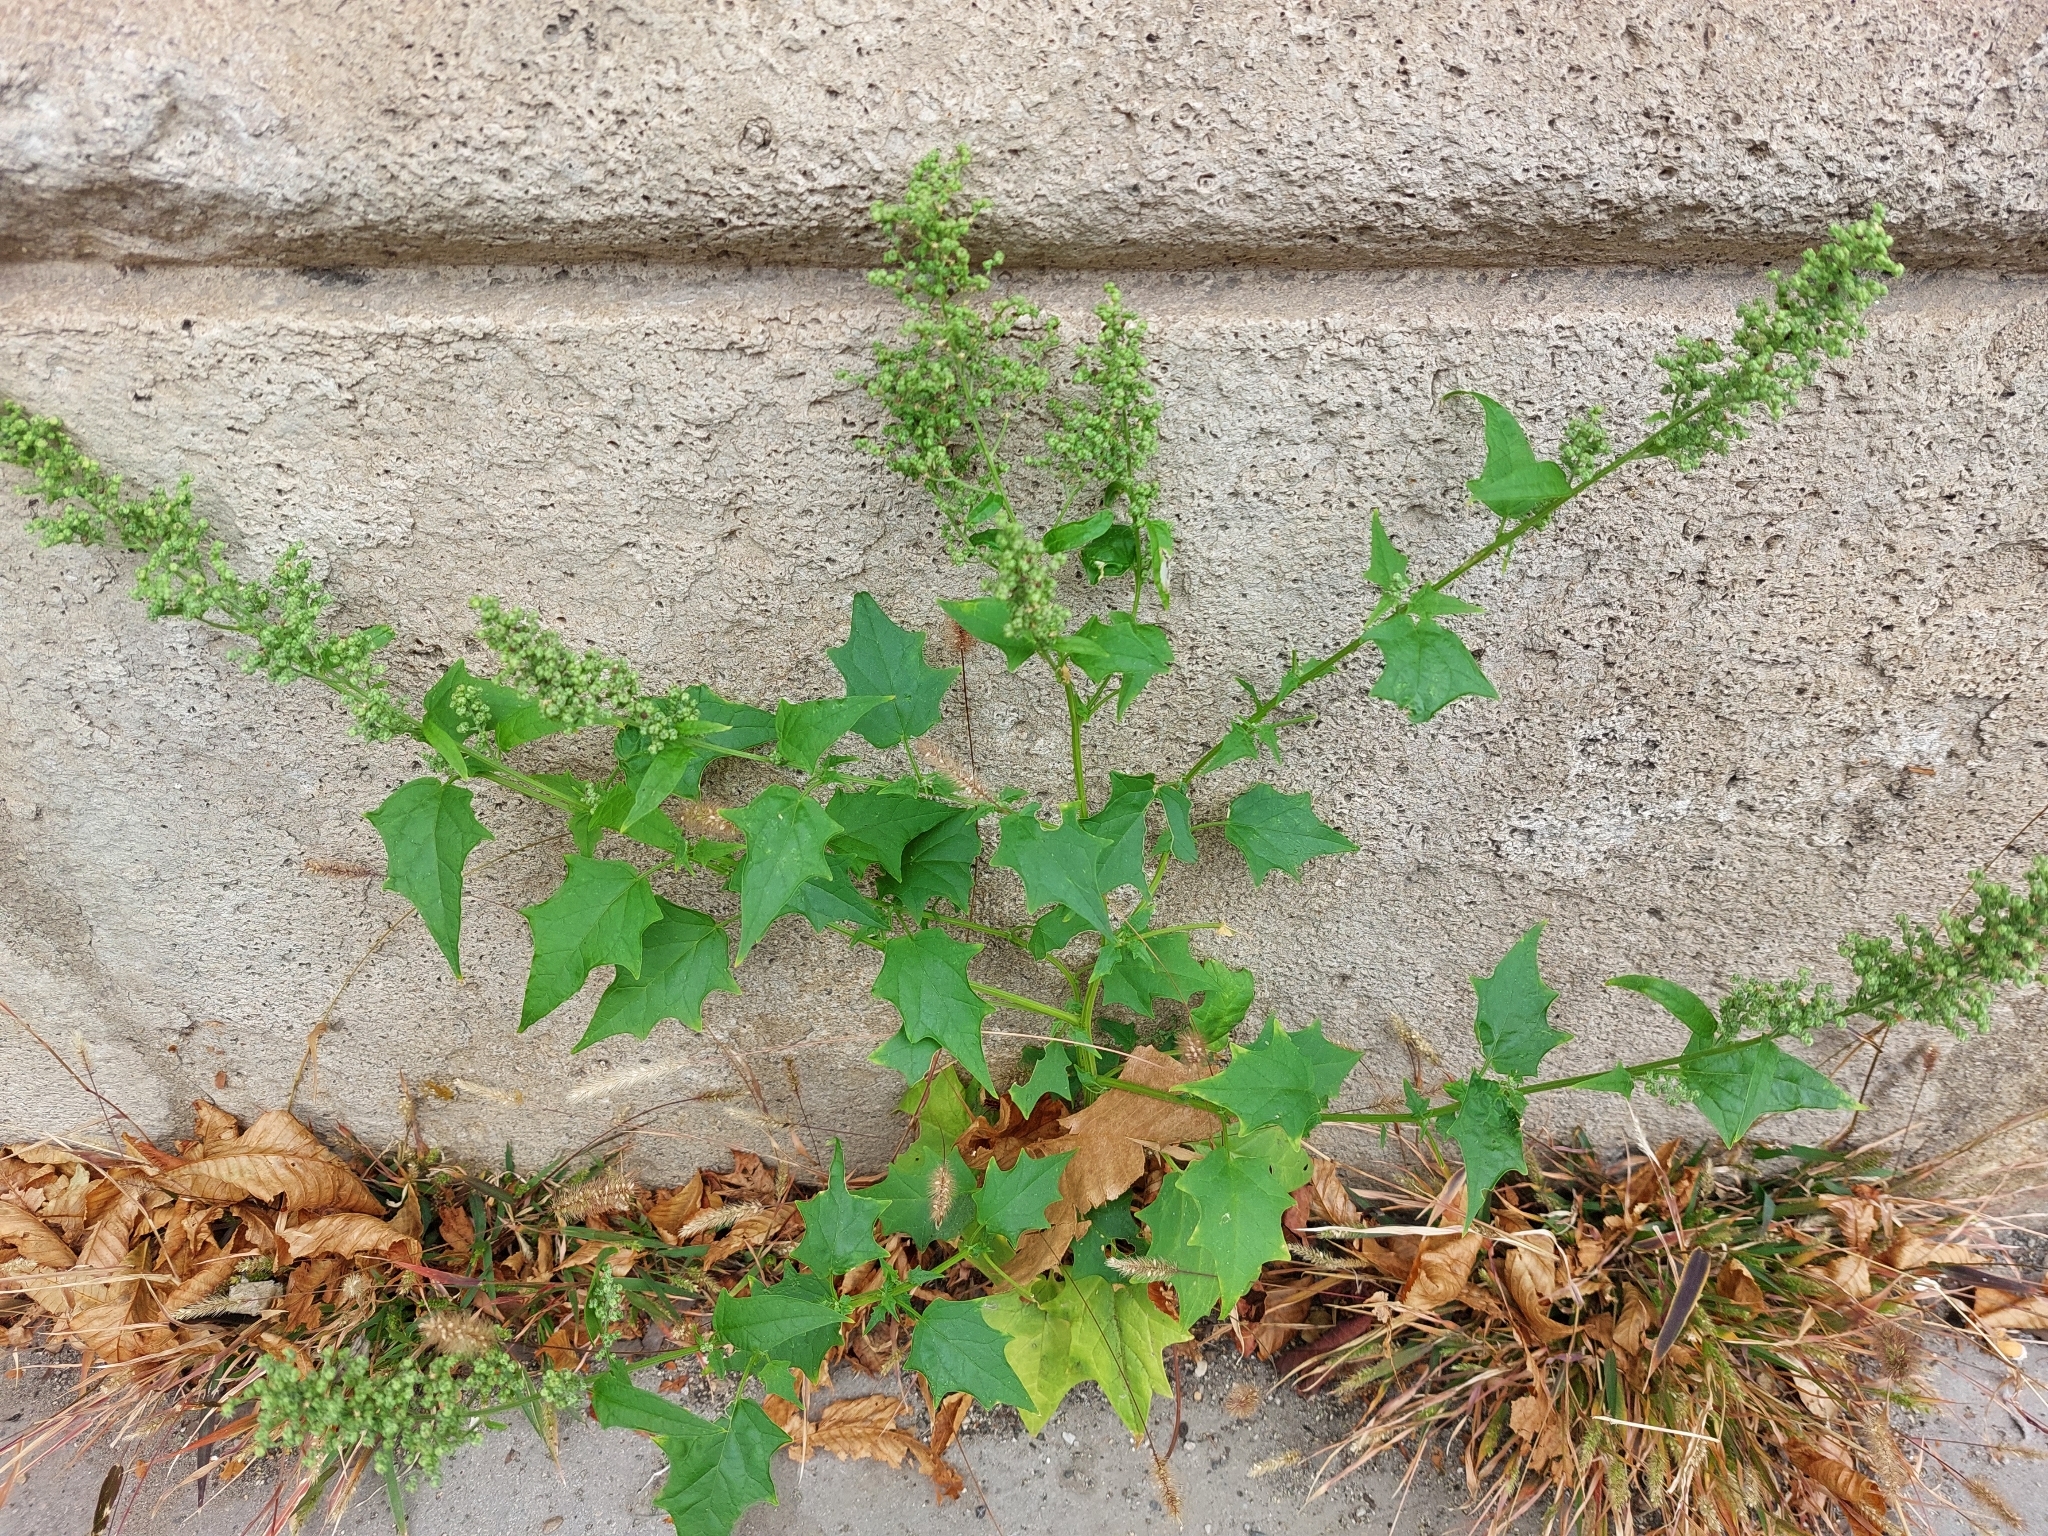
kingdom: Plantae
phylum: Tracheophyta
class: Magnoliopsida
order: Caryophyllales
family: Amaranthaceae
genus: Chenopodiastrum
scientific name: Chenopodiastrum hybridum
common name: Mapleleaf goosefoot
